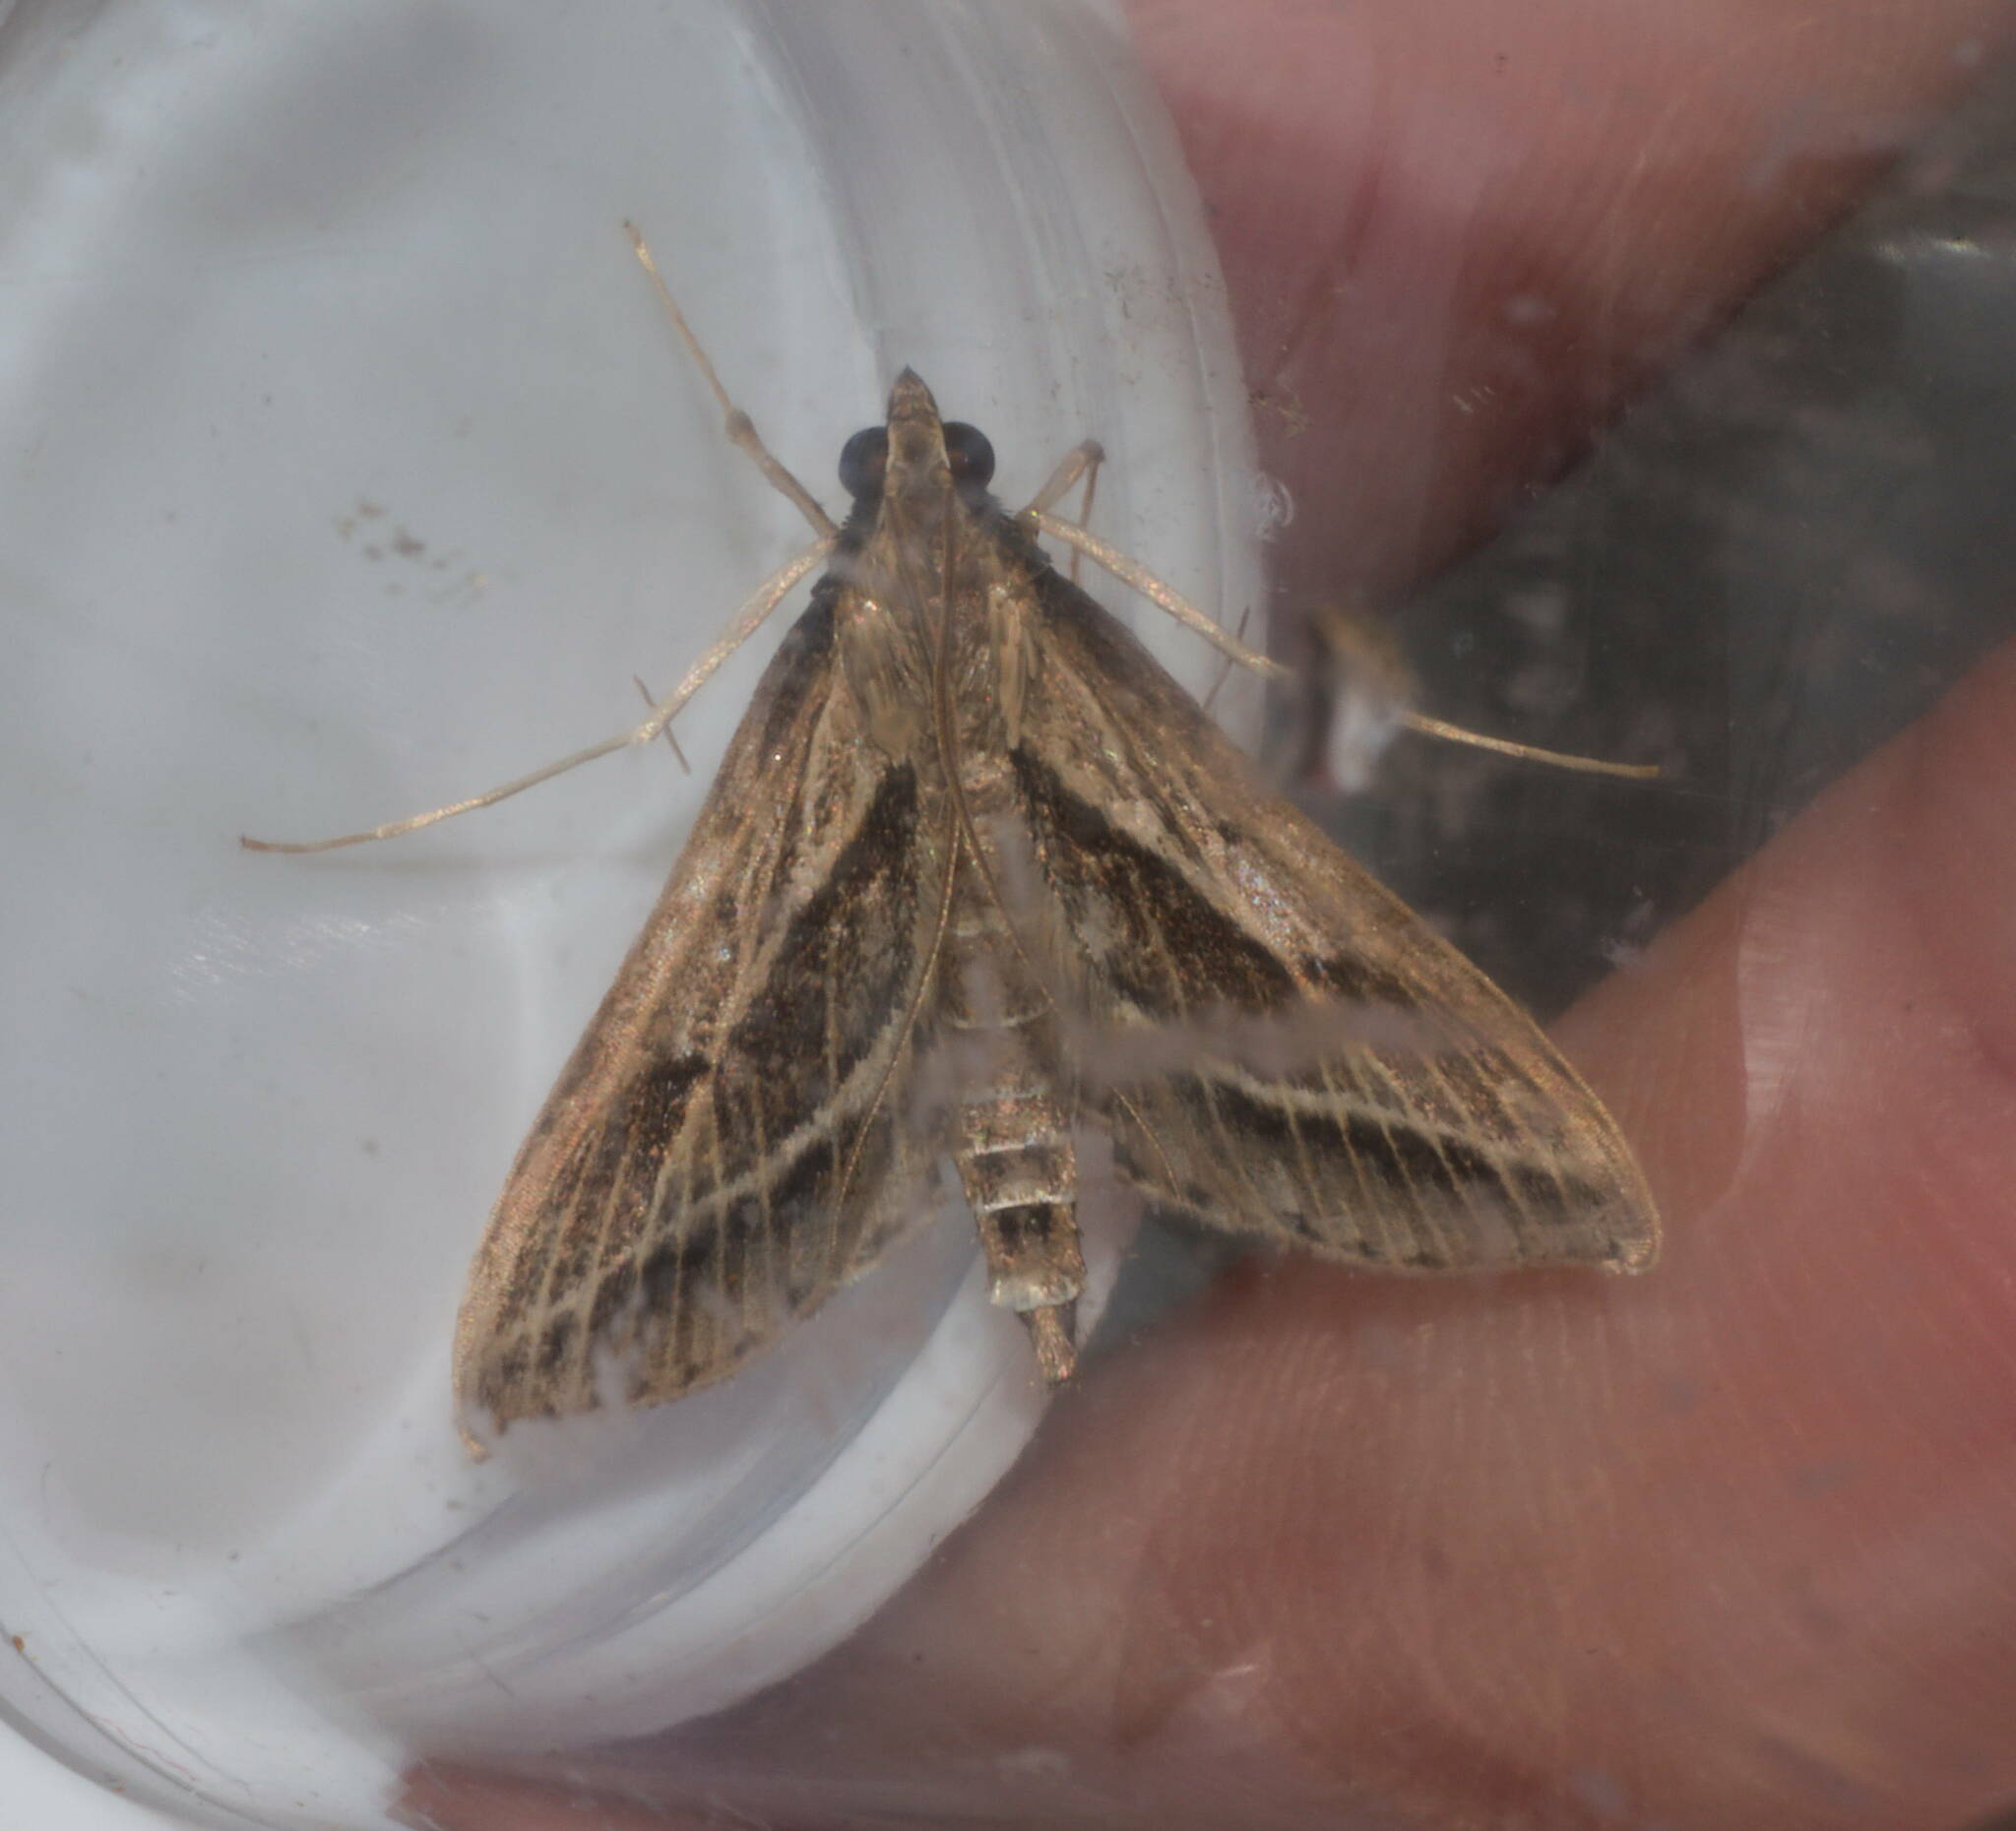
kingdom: Animalia
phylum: Arthropoda
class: Insecta
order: Lepidoptera
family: Crambidae
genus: Omiodes
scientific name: Omiodes accepta
